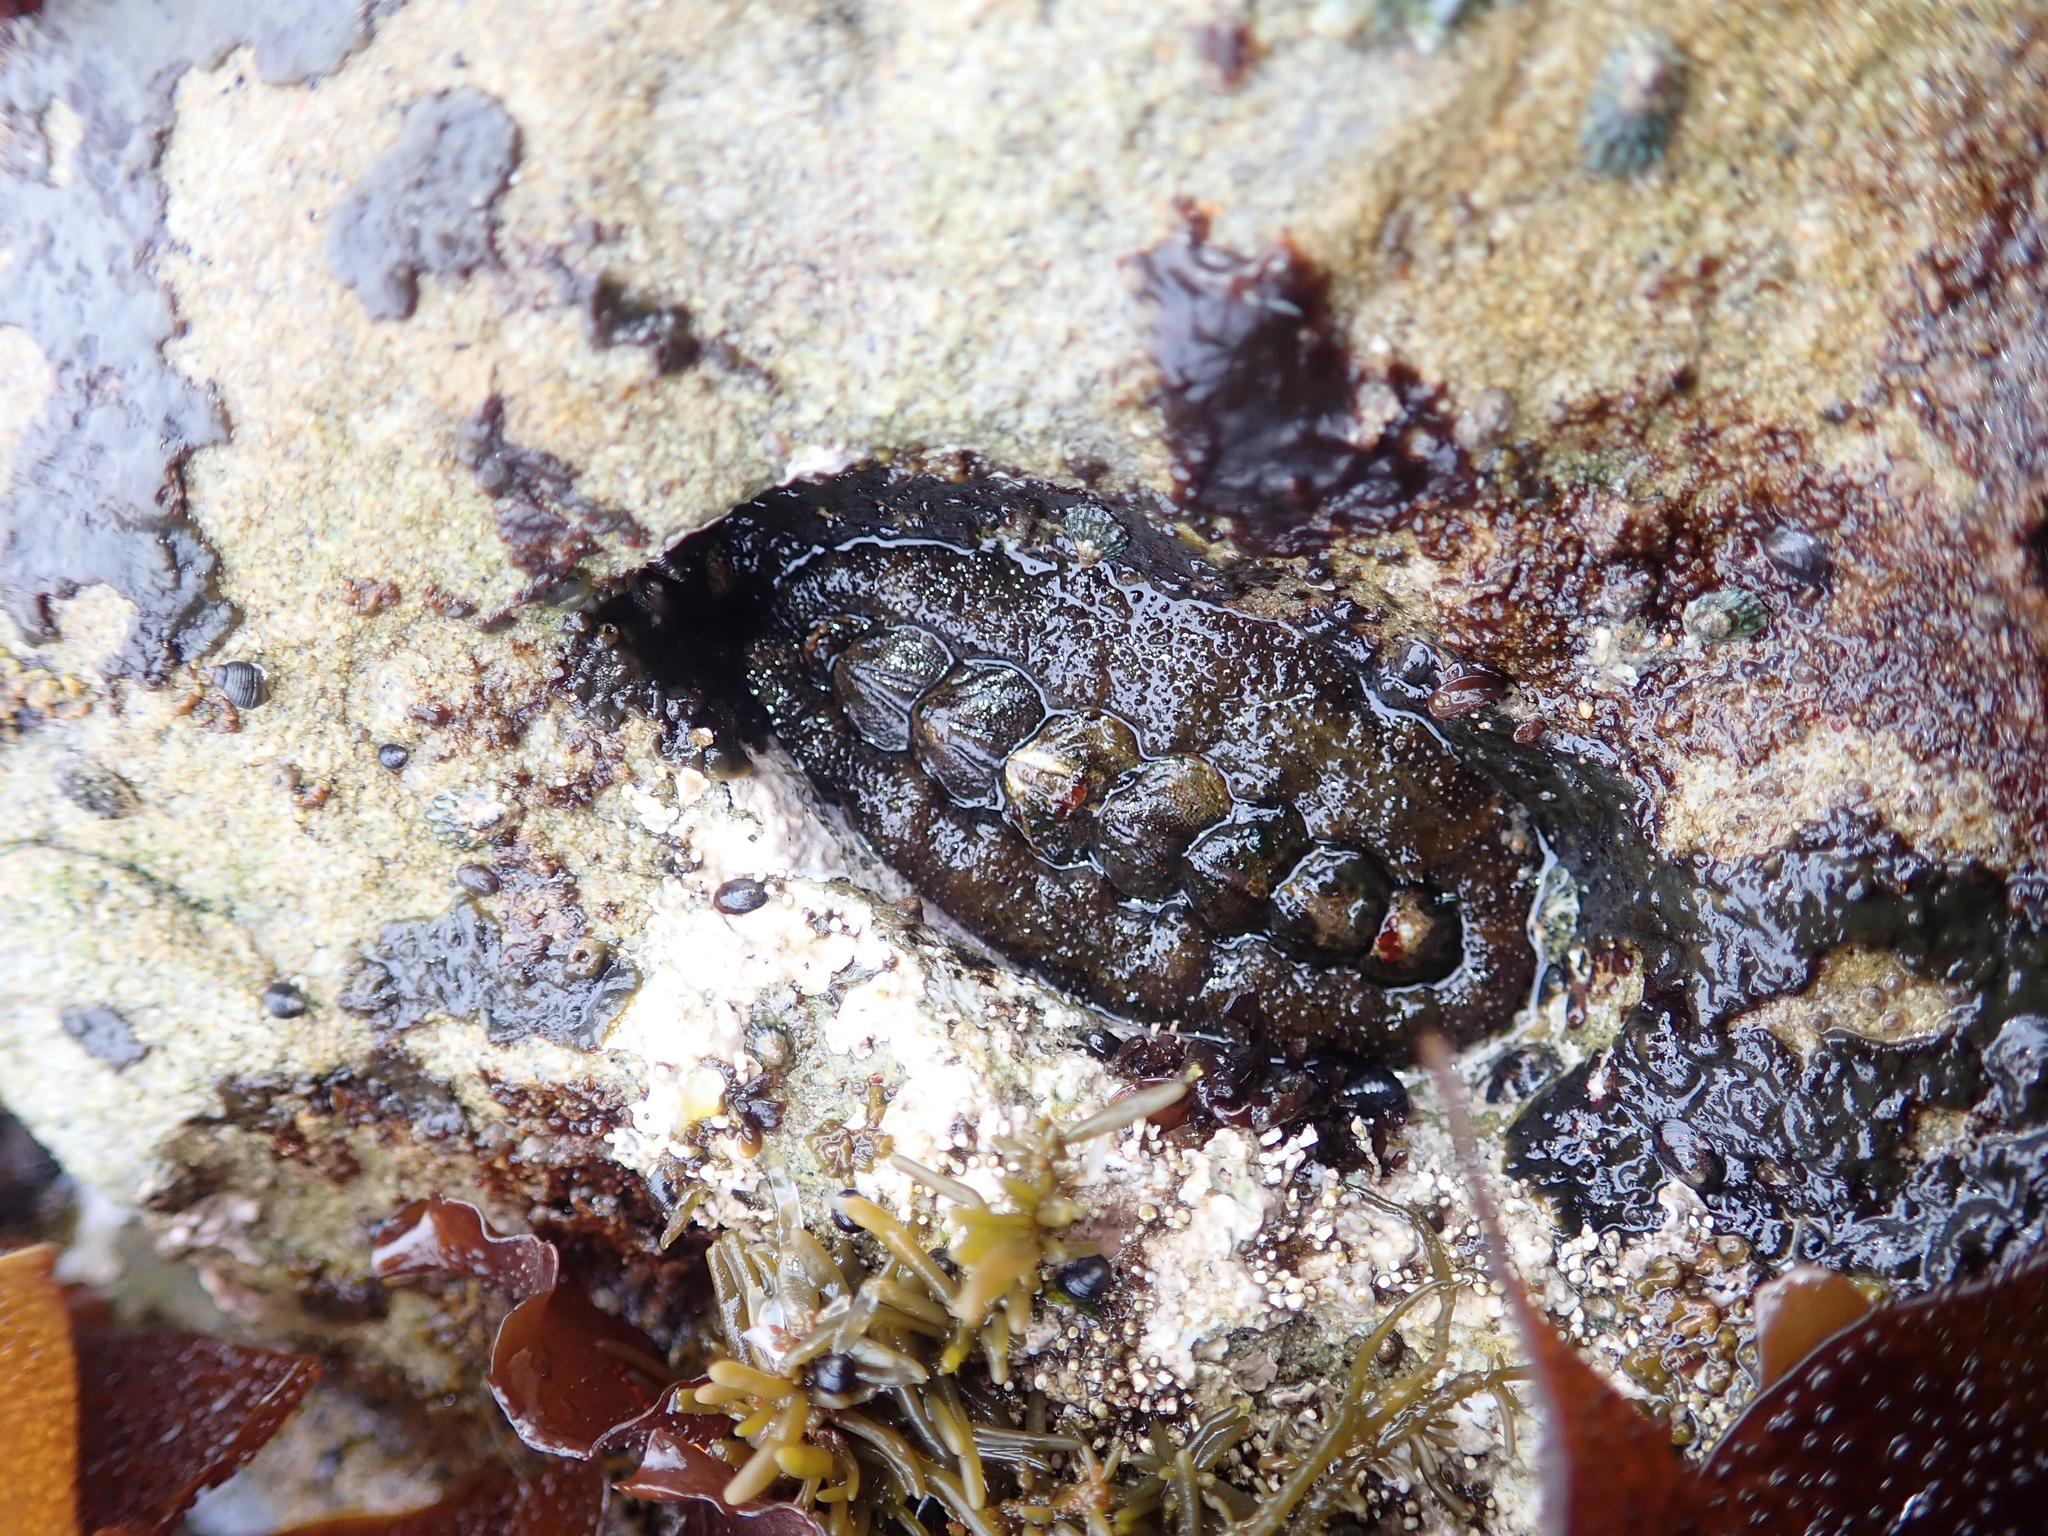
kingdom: Animalia
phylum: Mollusca
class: Polyplacophora
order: Chitonida
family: Tonicellidae
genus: Nuttallina
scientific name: Nuttallina californica
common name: California nuttall chiton
